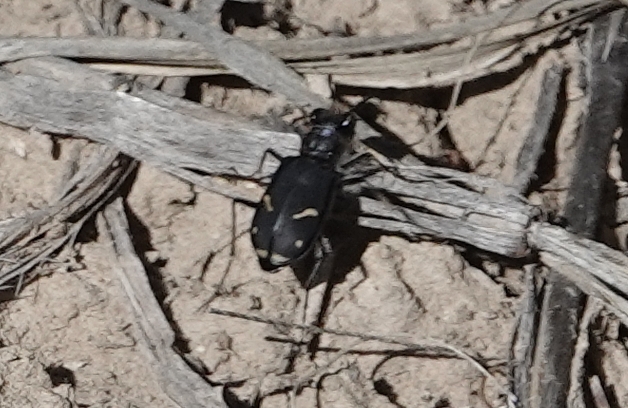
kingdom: Animalia
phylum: Arthropoda
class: Insecta
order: Coleoptera
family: Carabidae
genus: Cicindela
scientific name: Cicindela purpurea
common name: Cow path tiger beetle
